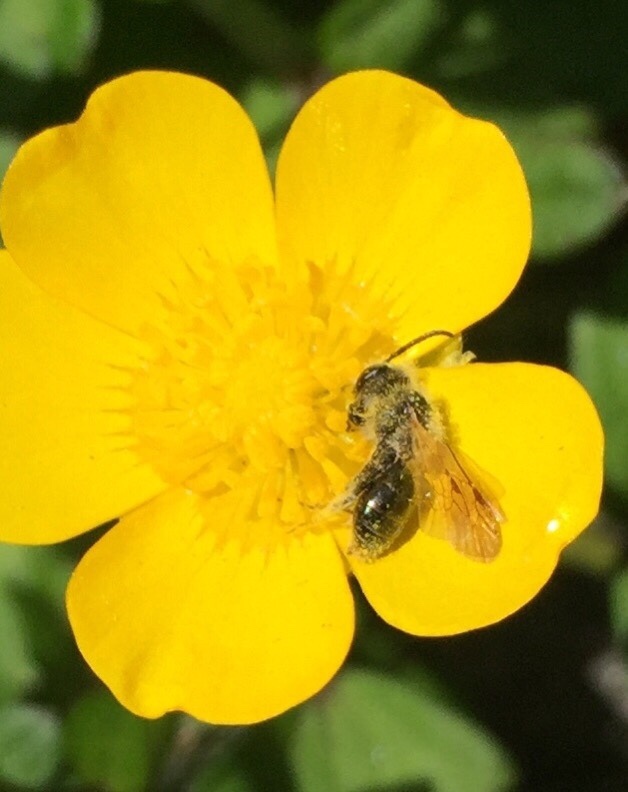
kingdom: Animalia
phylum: Arthropoda
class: Insecta
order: Hymenoptera
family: Andrenidae
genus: Andrena
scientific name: Andrena
